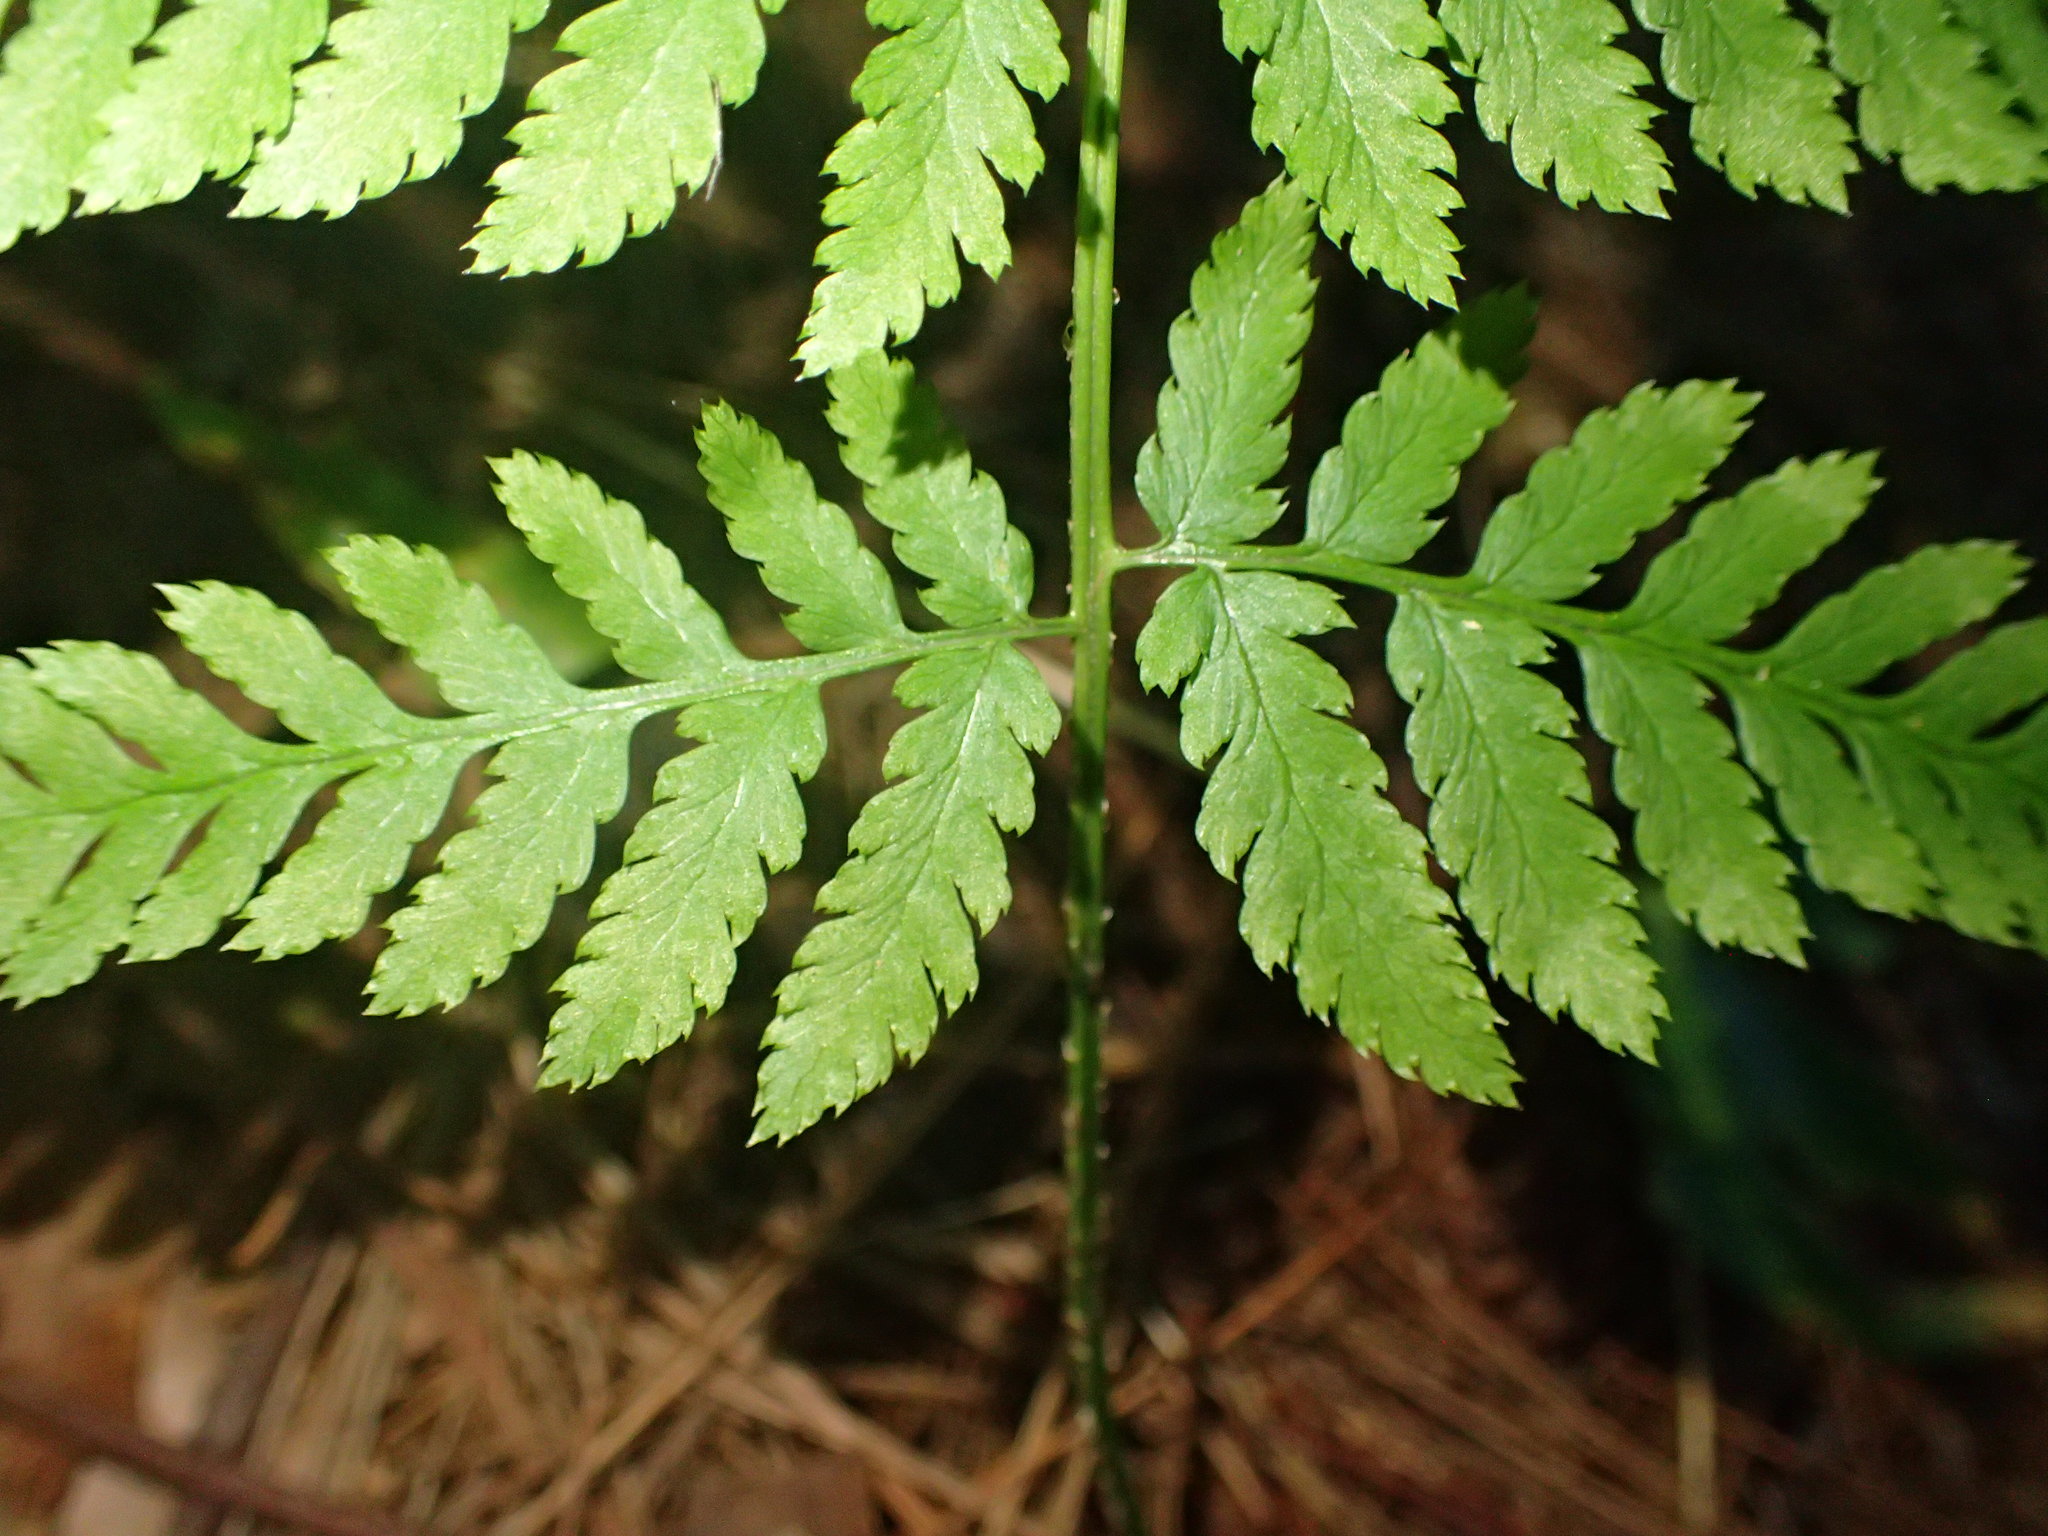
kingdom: Plantae
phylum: Tracheophyta
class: Polypodiopsida
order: Polypodiales
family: Dryopteridaceae
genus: Dryopteris
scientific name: Dryopteris carthusiana
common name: Narrow buckler-fern
